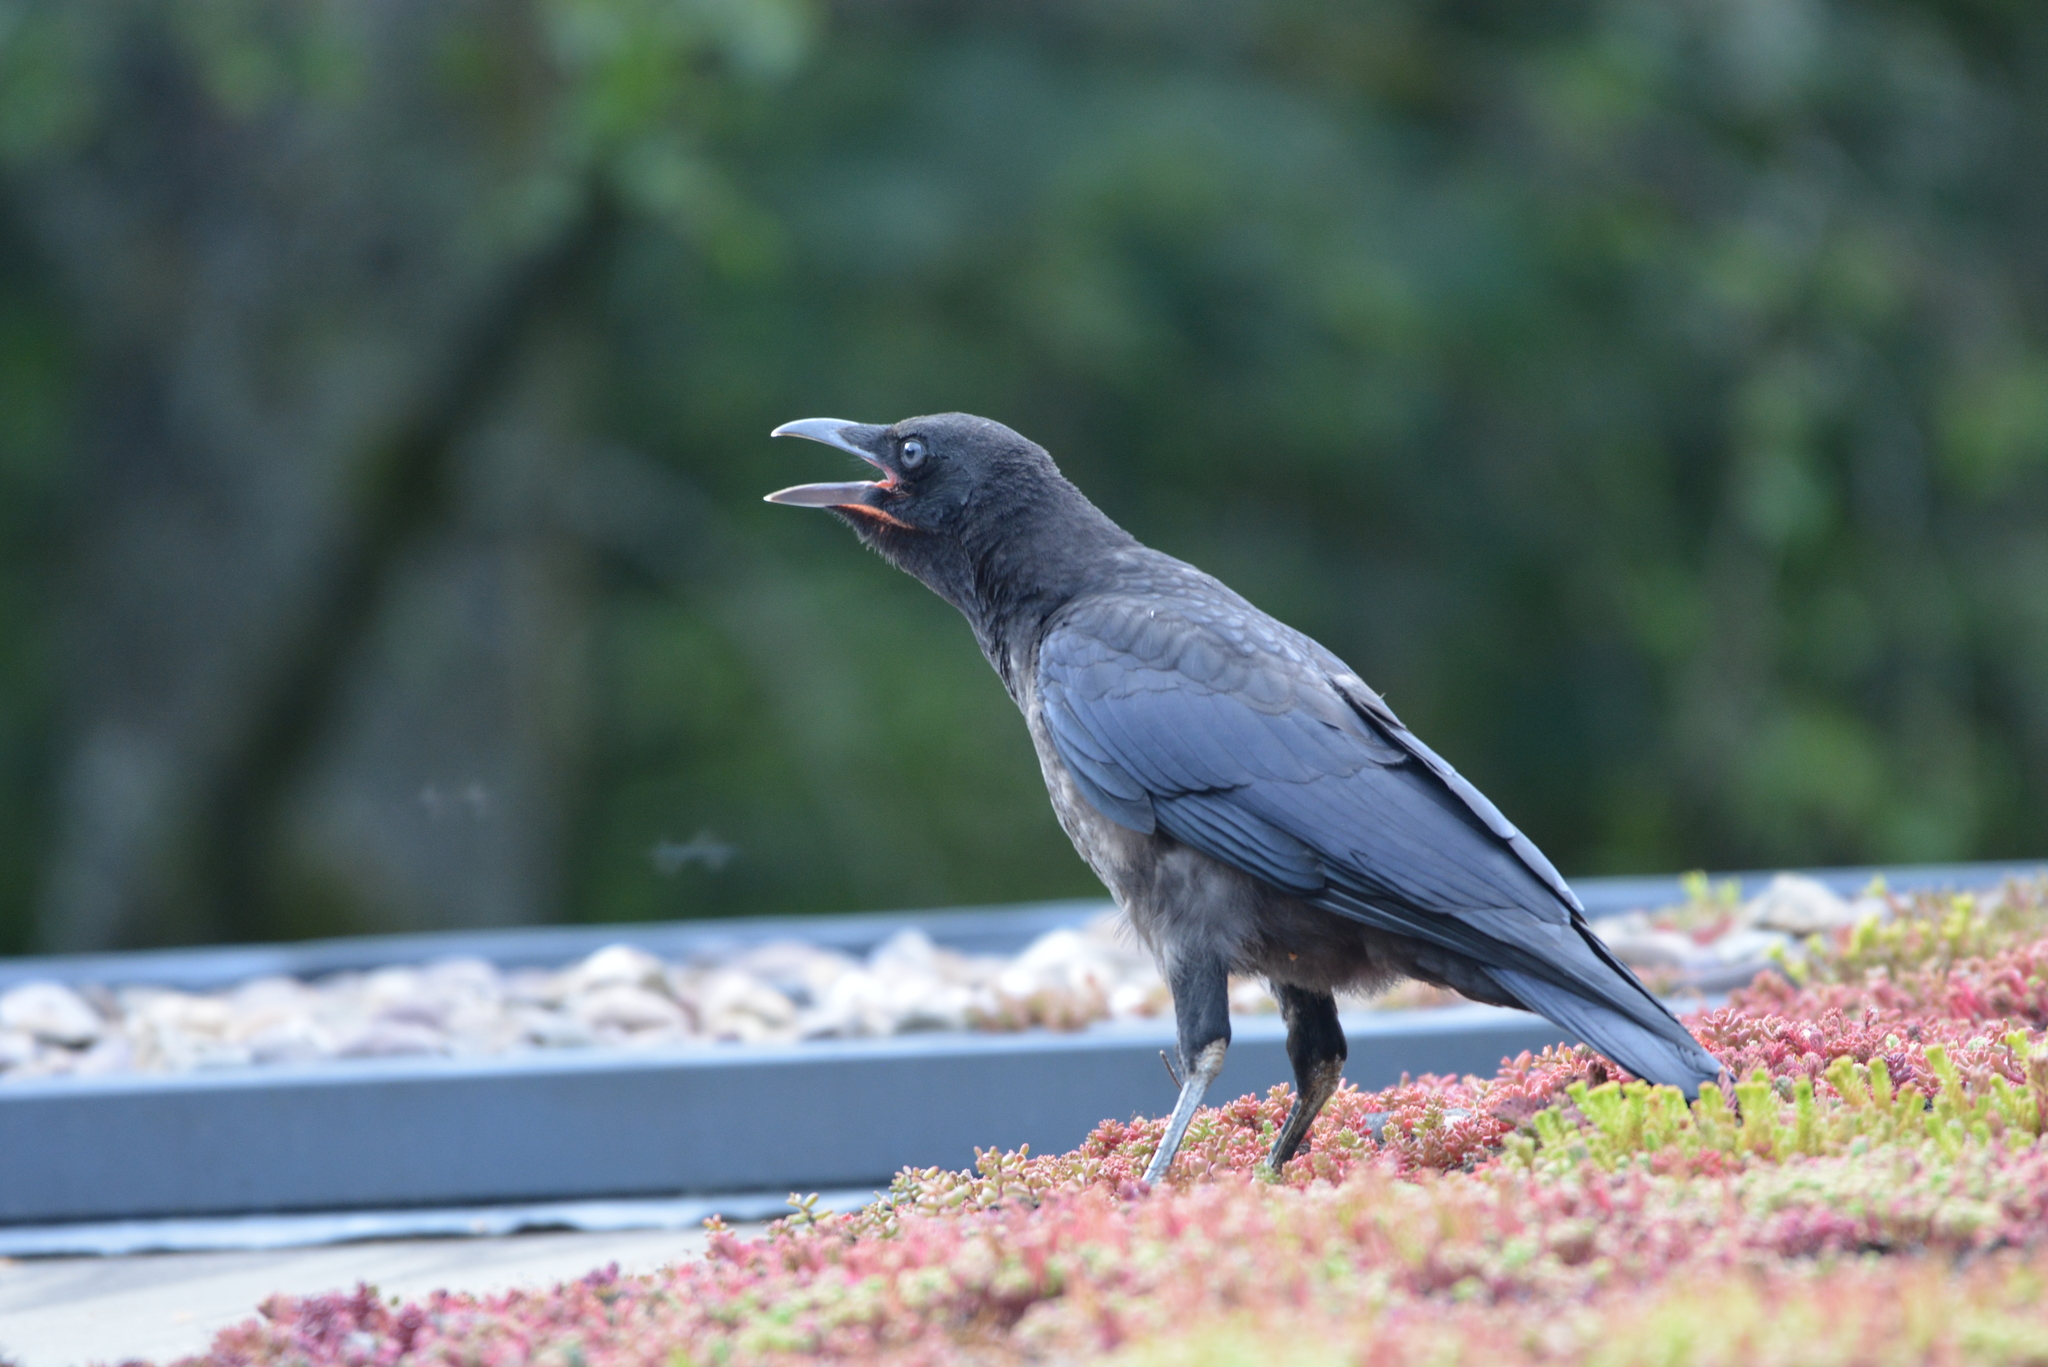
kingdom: Animalia
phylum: Chordata
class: Aves
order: Passeriformes
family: Corvidae
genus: Corvus
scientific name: Corvus corone
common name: Carrion crow
